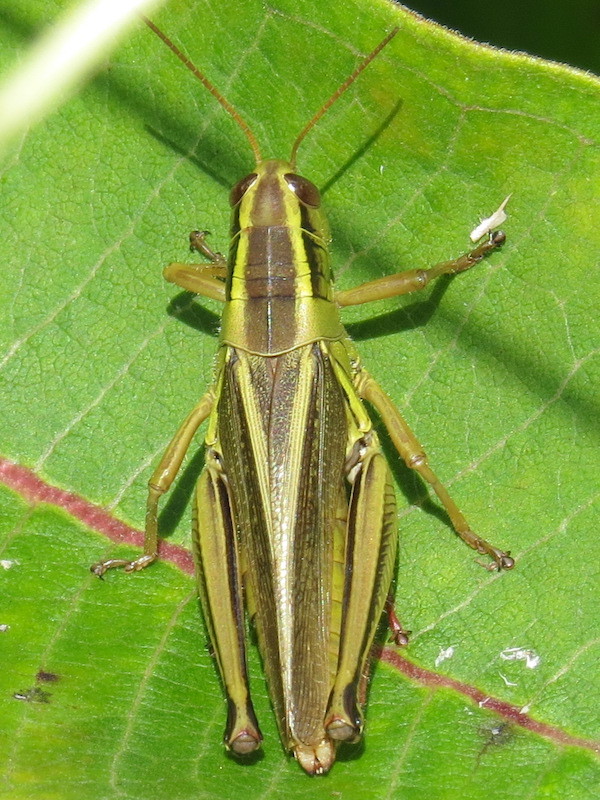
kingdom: Animalia
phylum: Arthropoda
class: Insecta
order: Orthoptera
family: Acrididae
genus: Melanoplus
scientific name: Melanoplus bivittatus
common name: Two-striped grasshopper
